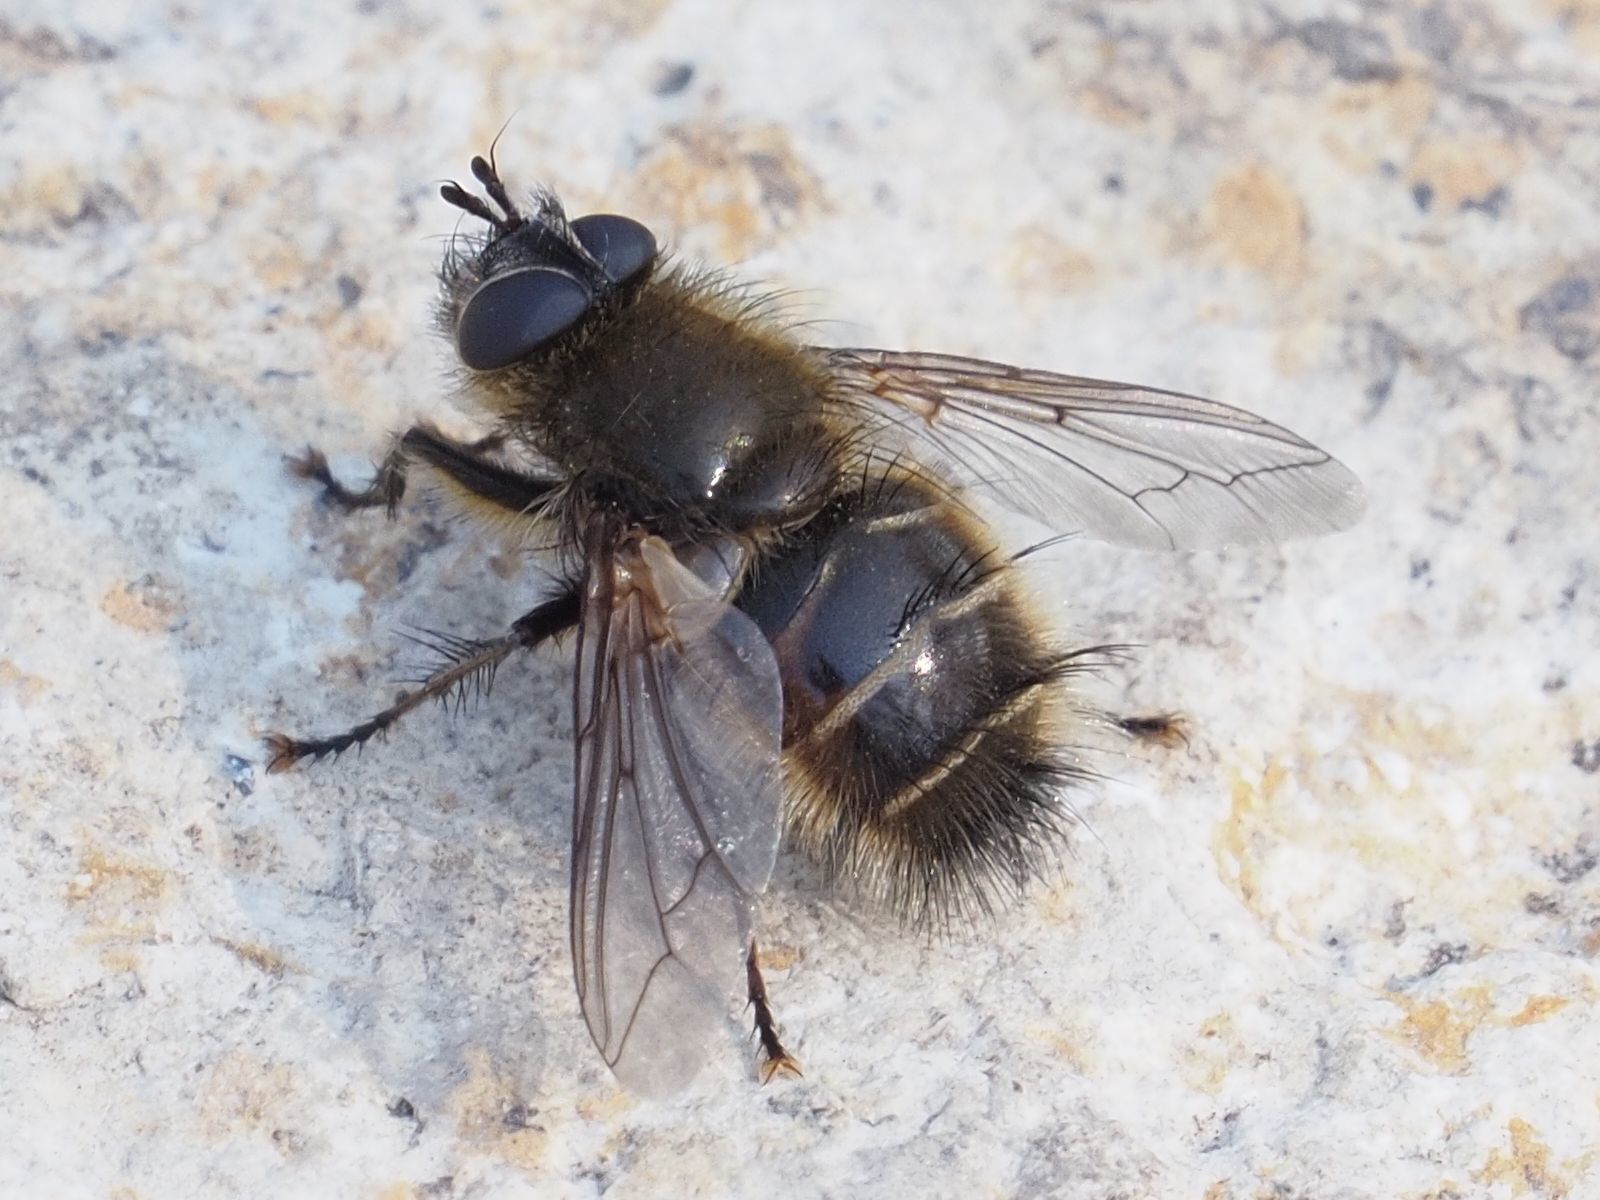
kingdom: Animalia
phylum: Arthropoda
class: Insecta
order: Diptera
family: Tachinidae
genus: Tachina
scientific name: Tachina ursina
